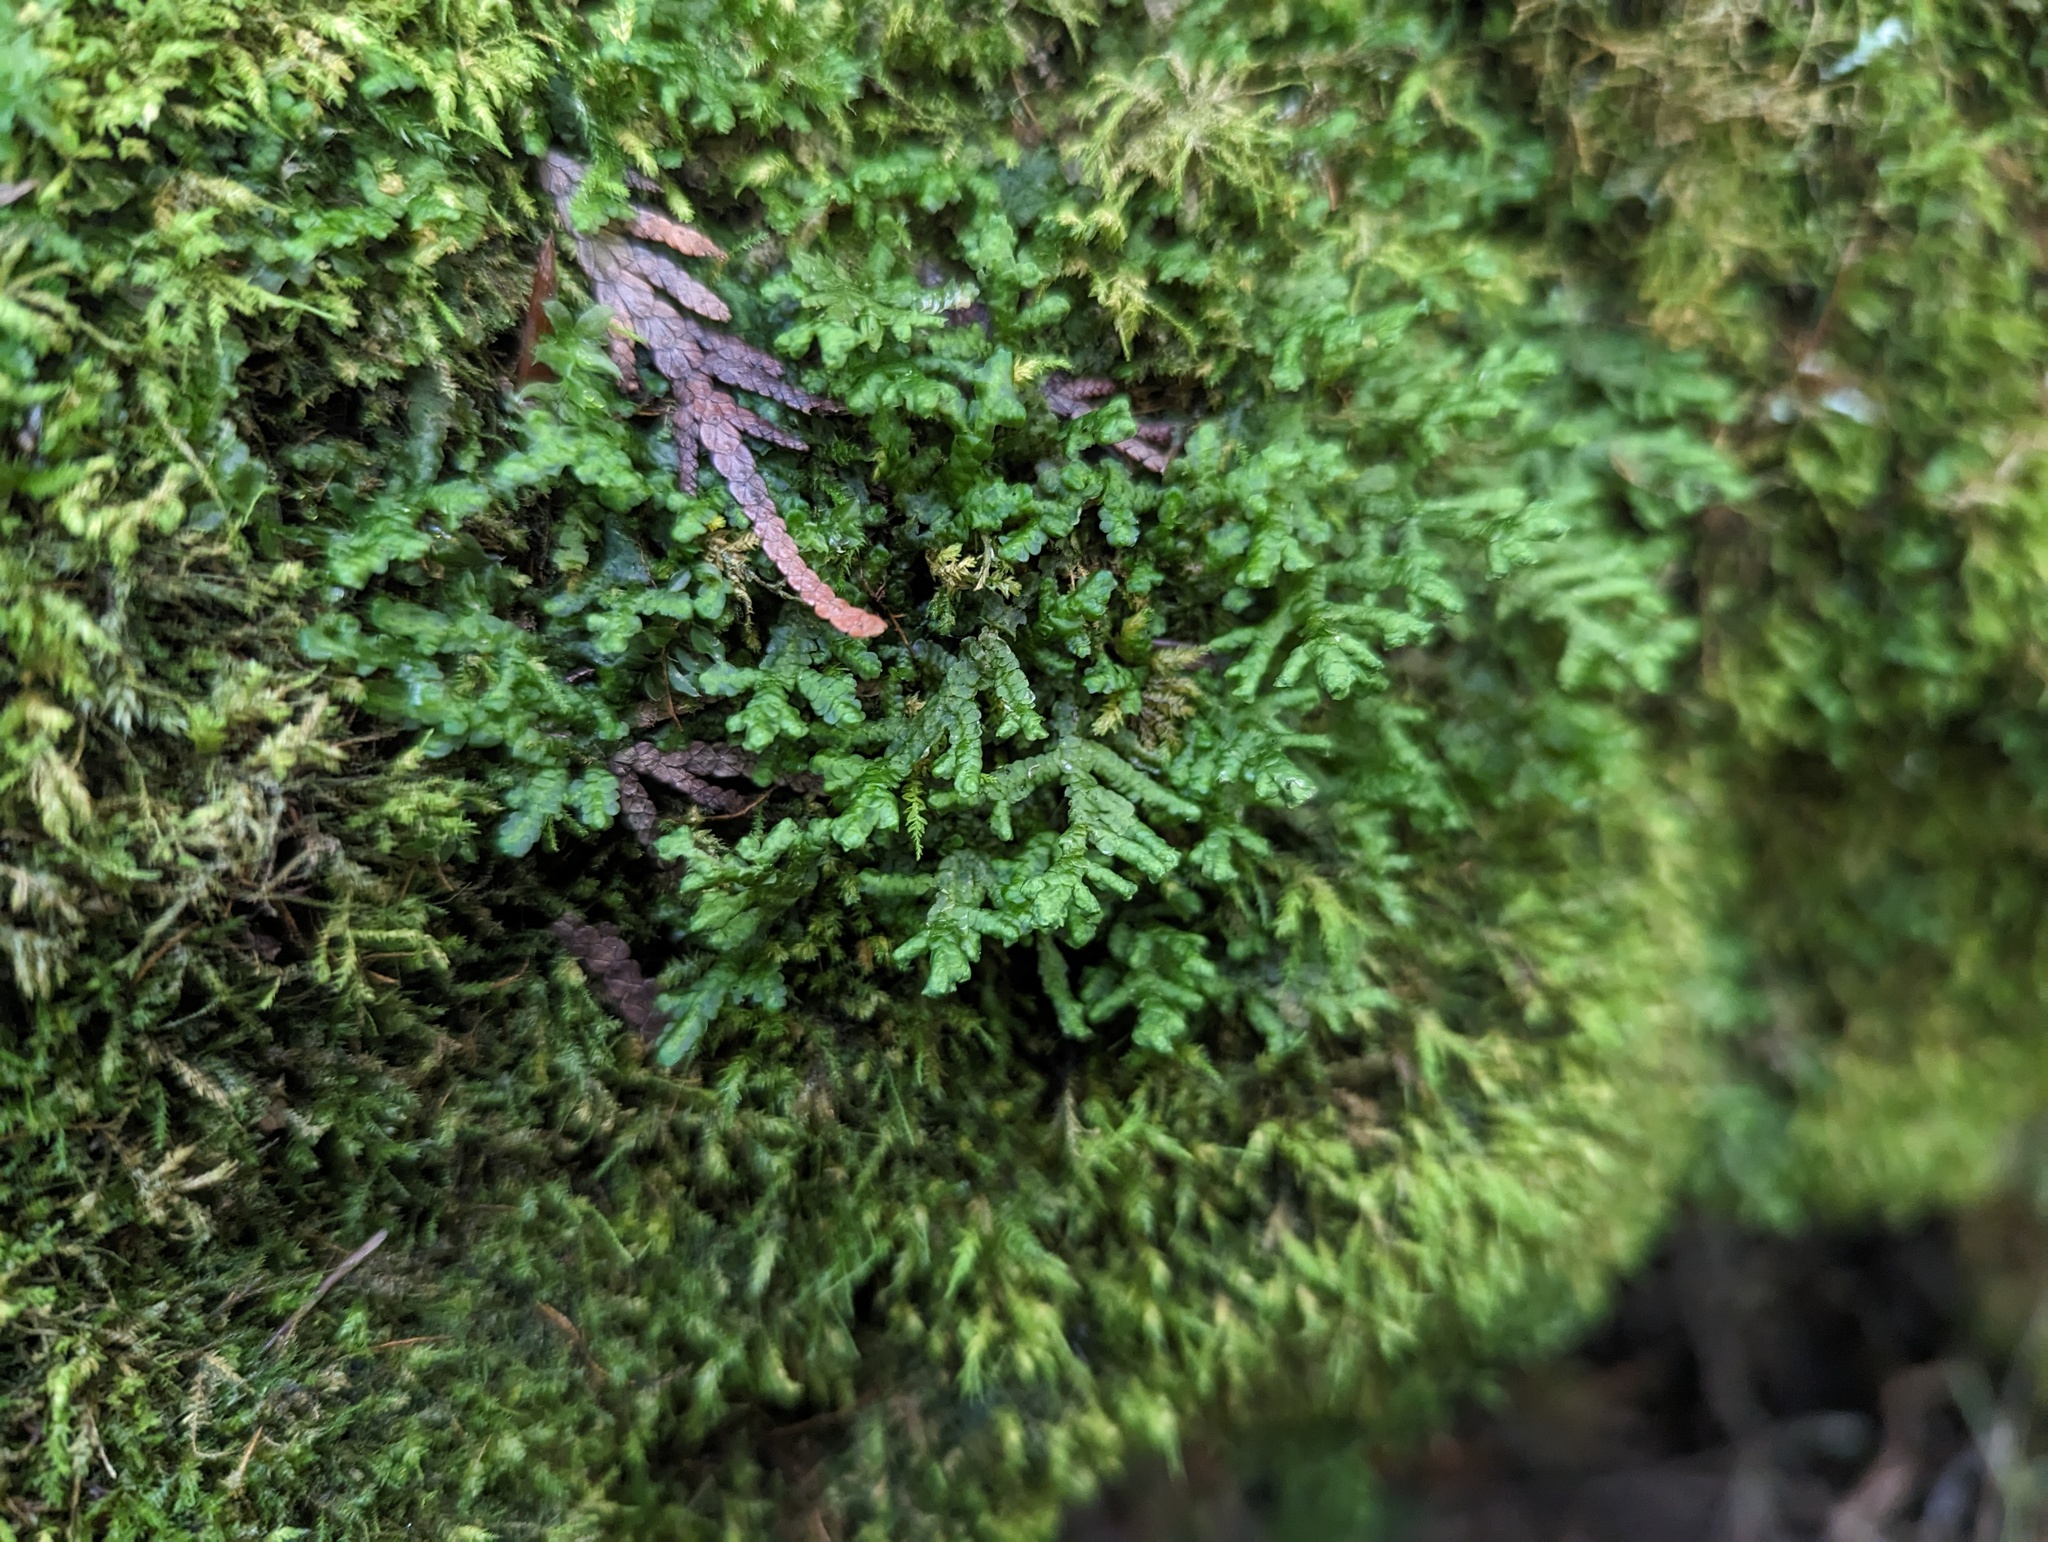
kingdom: Plantae
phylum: Marchantiophyta
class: Jungermanniopsida
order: Porellales
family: Porellaceae
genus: Porella
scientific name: Porella platyphylla
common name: Wall scalewort
